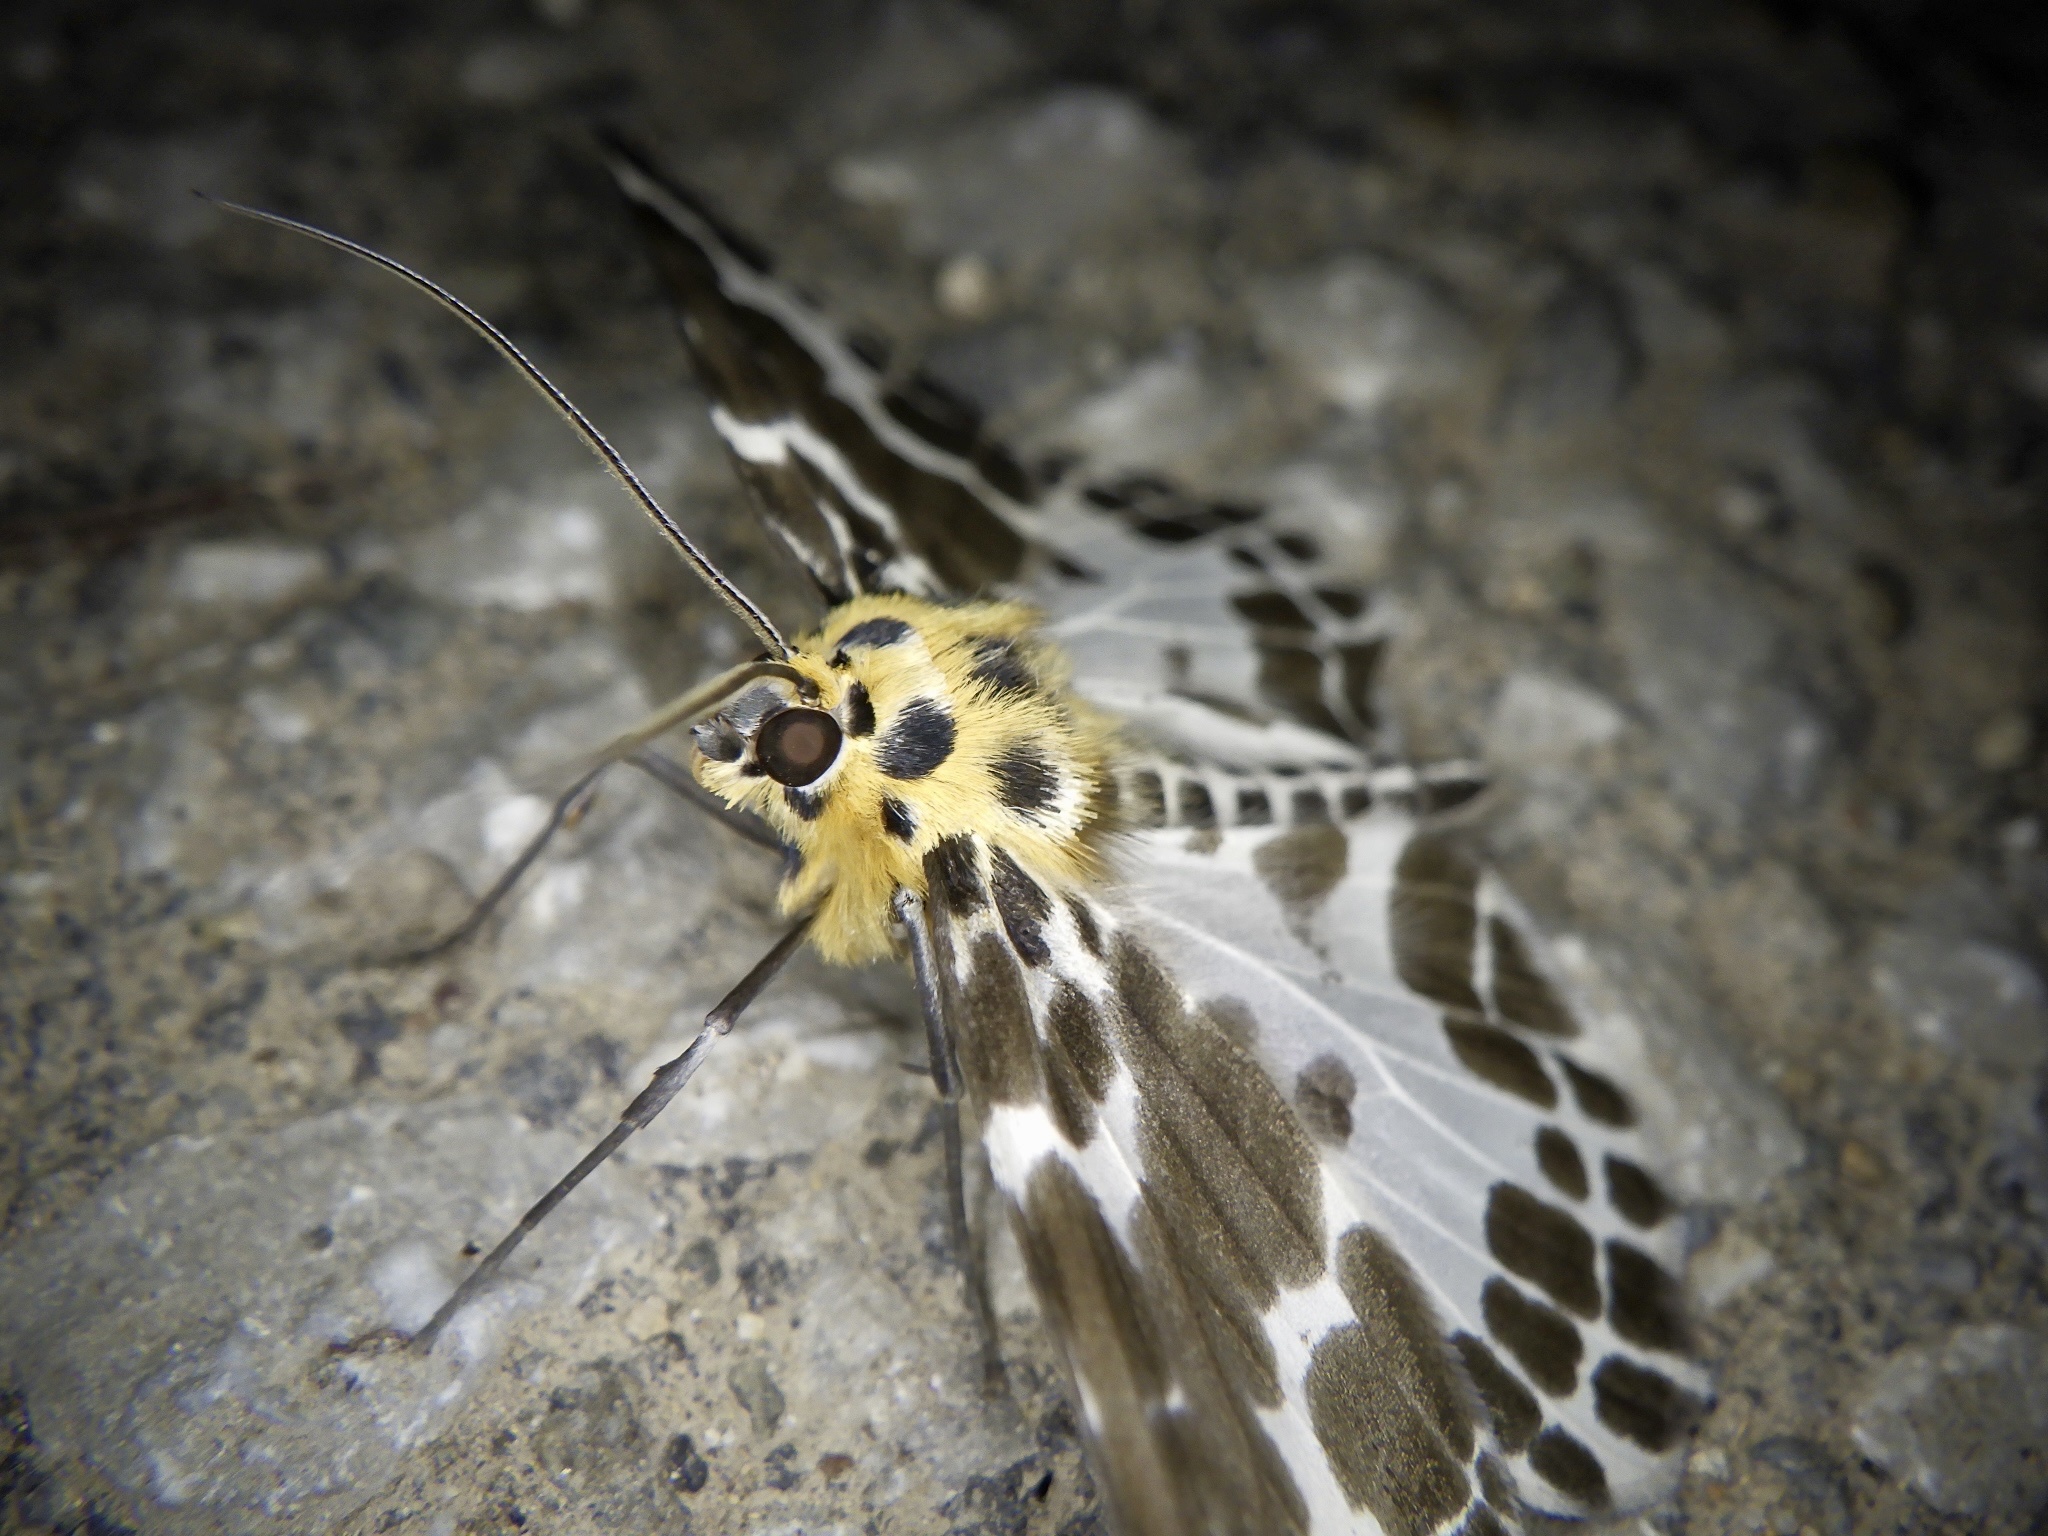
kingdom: Animalia
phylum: Arthropoda
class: Insecta
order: Lepidoptera
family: Geometridae
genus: Pogonopygia
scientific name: Pogonopygia nigralbata
